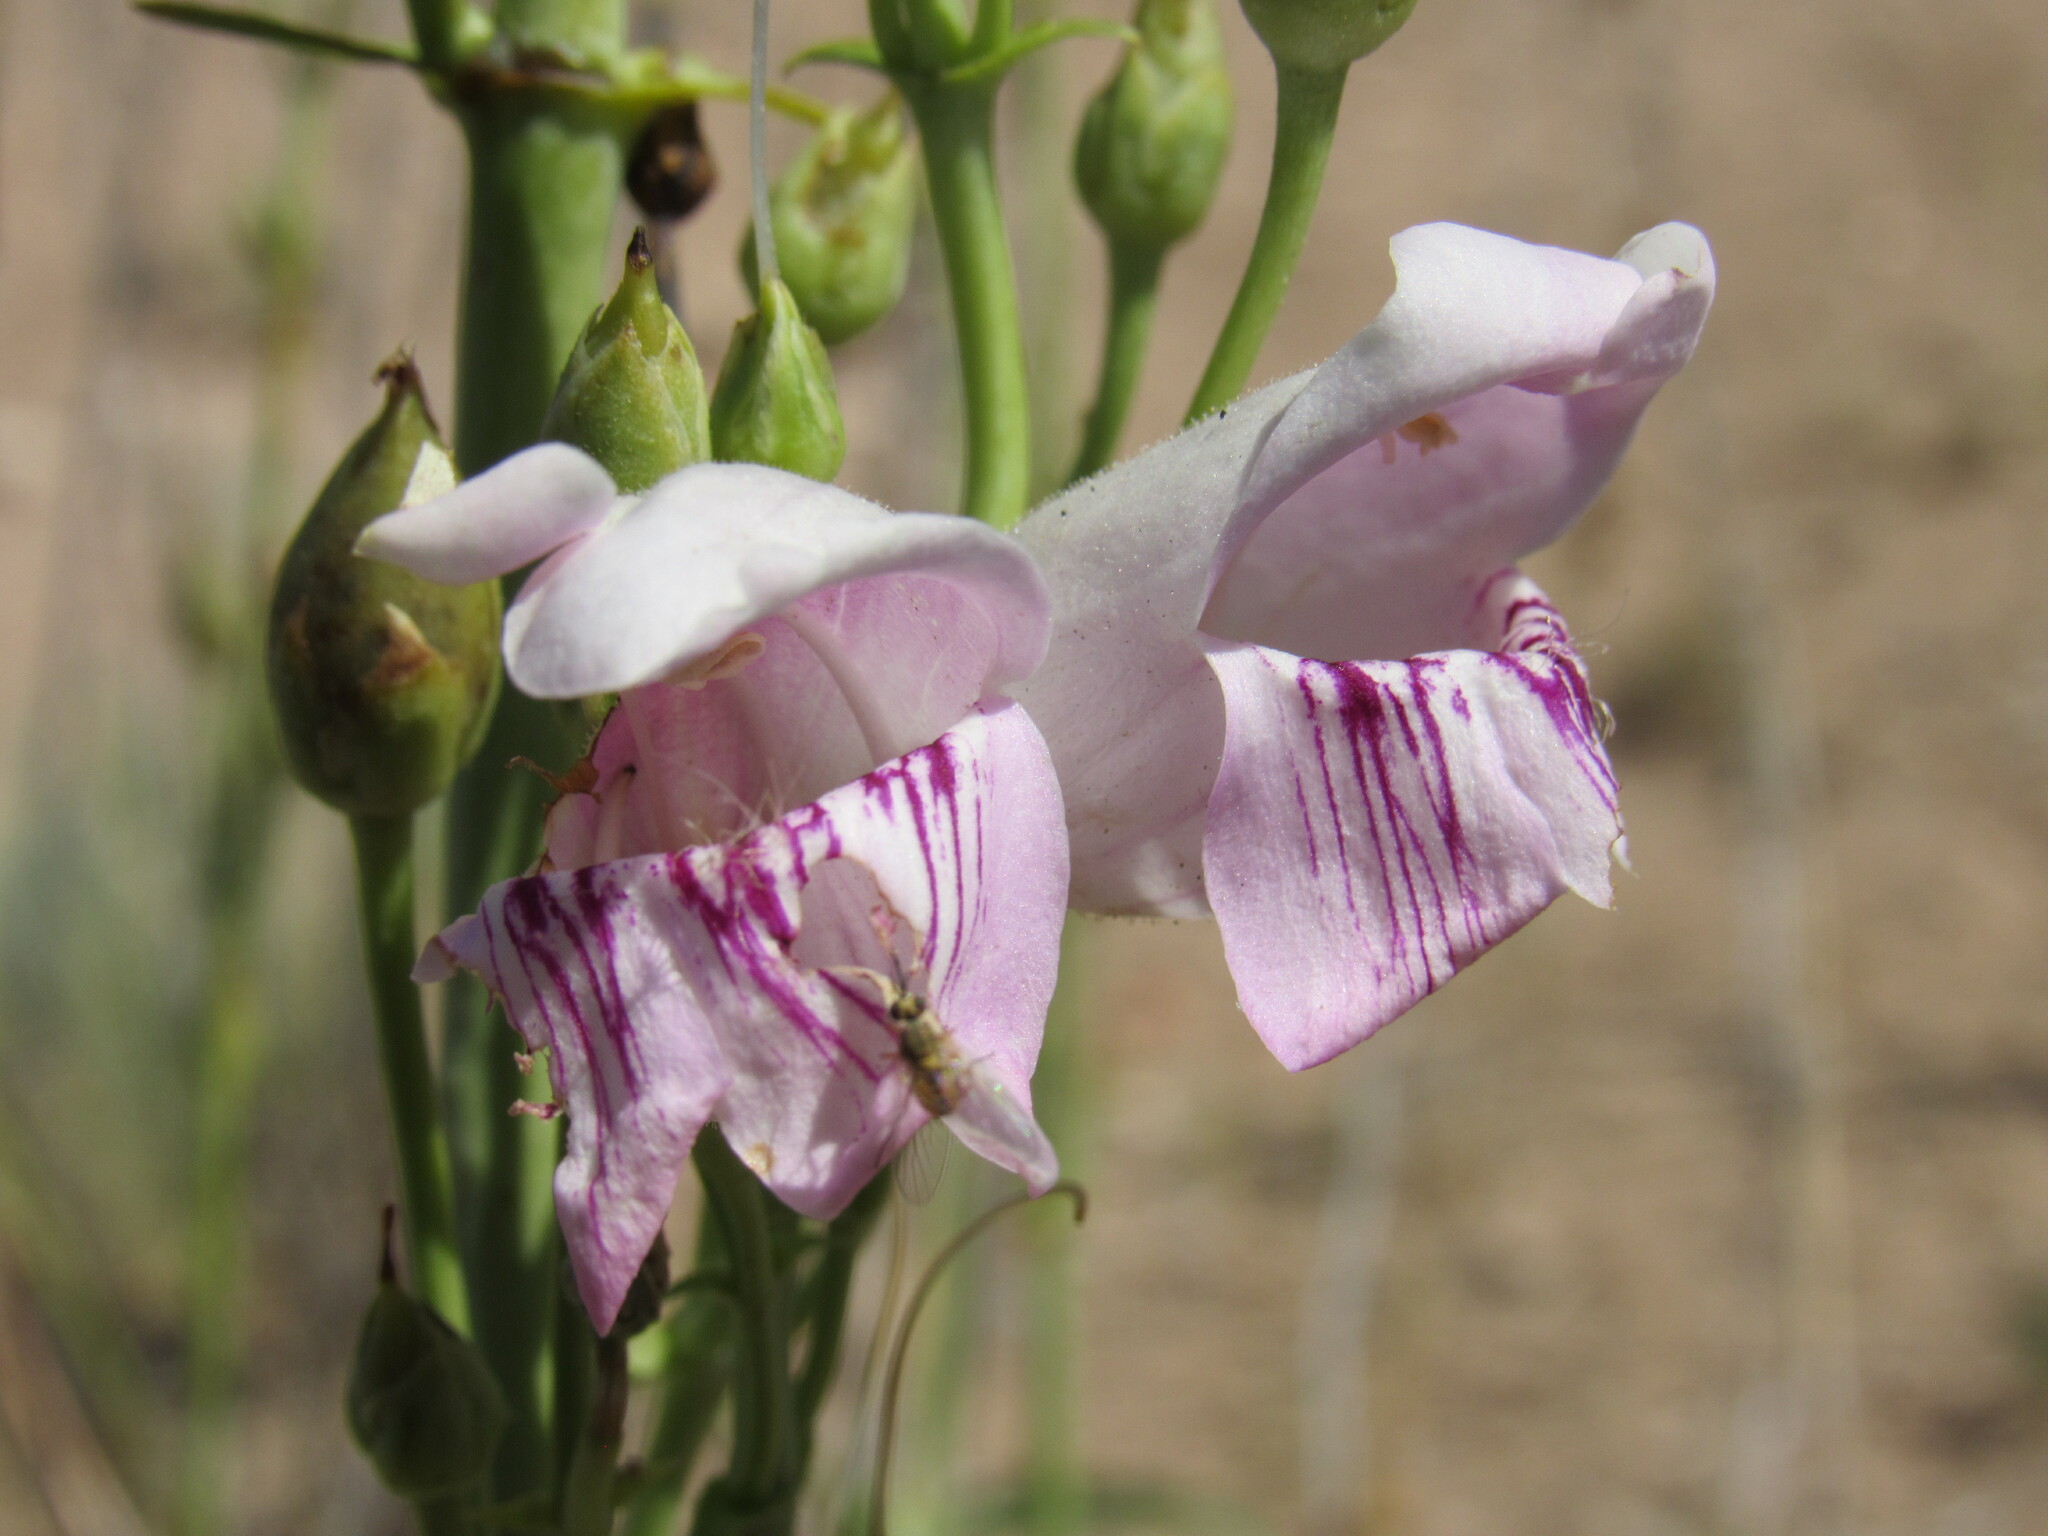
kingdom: Plantae
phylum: Tracheophyta
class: Magnoliopsida
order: Lamiales
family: Plantaginaceae
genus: Penstemon
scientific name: Penstemon palmeri
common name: Palmer penstemon
